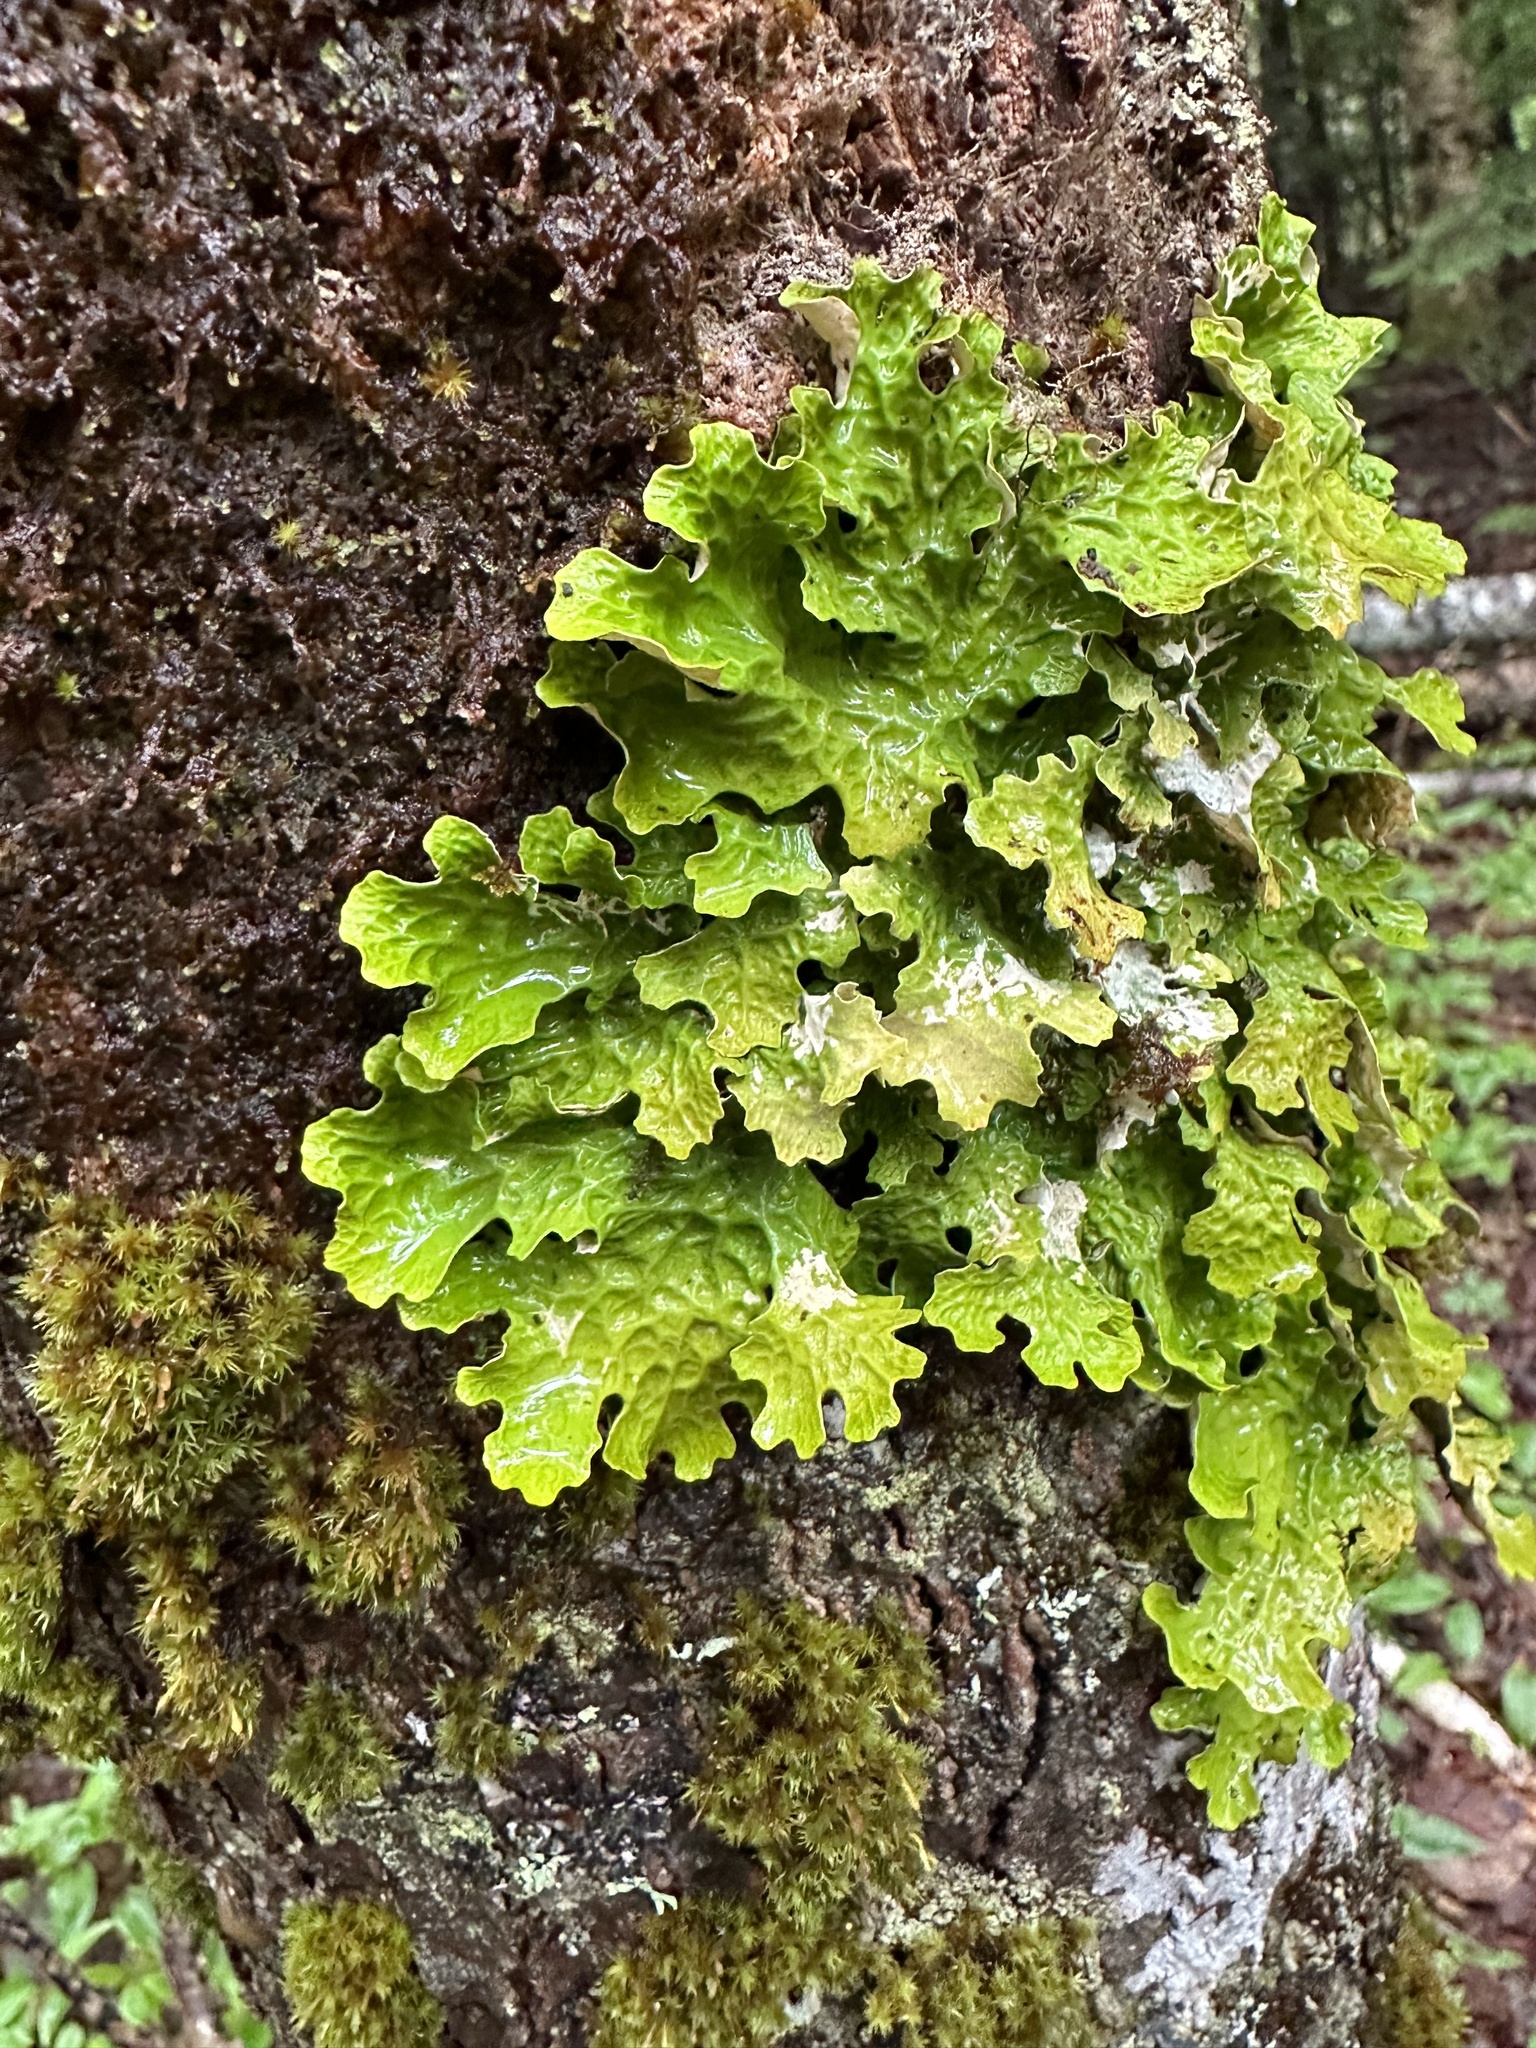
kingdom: Fungi
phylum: Ascomycota
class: Lecanoromycetes
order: Peltigerales
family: Lobariaceae
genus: Lobaria
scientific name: Lobaria pulmonaria
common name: Lungwort
